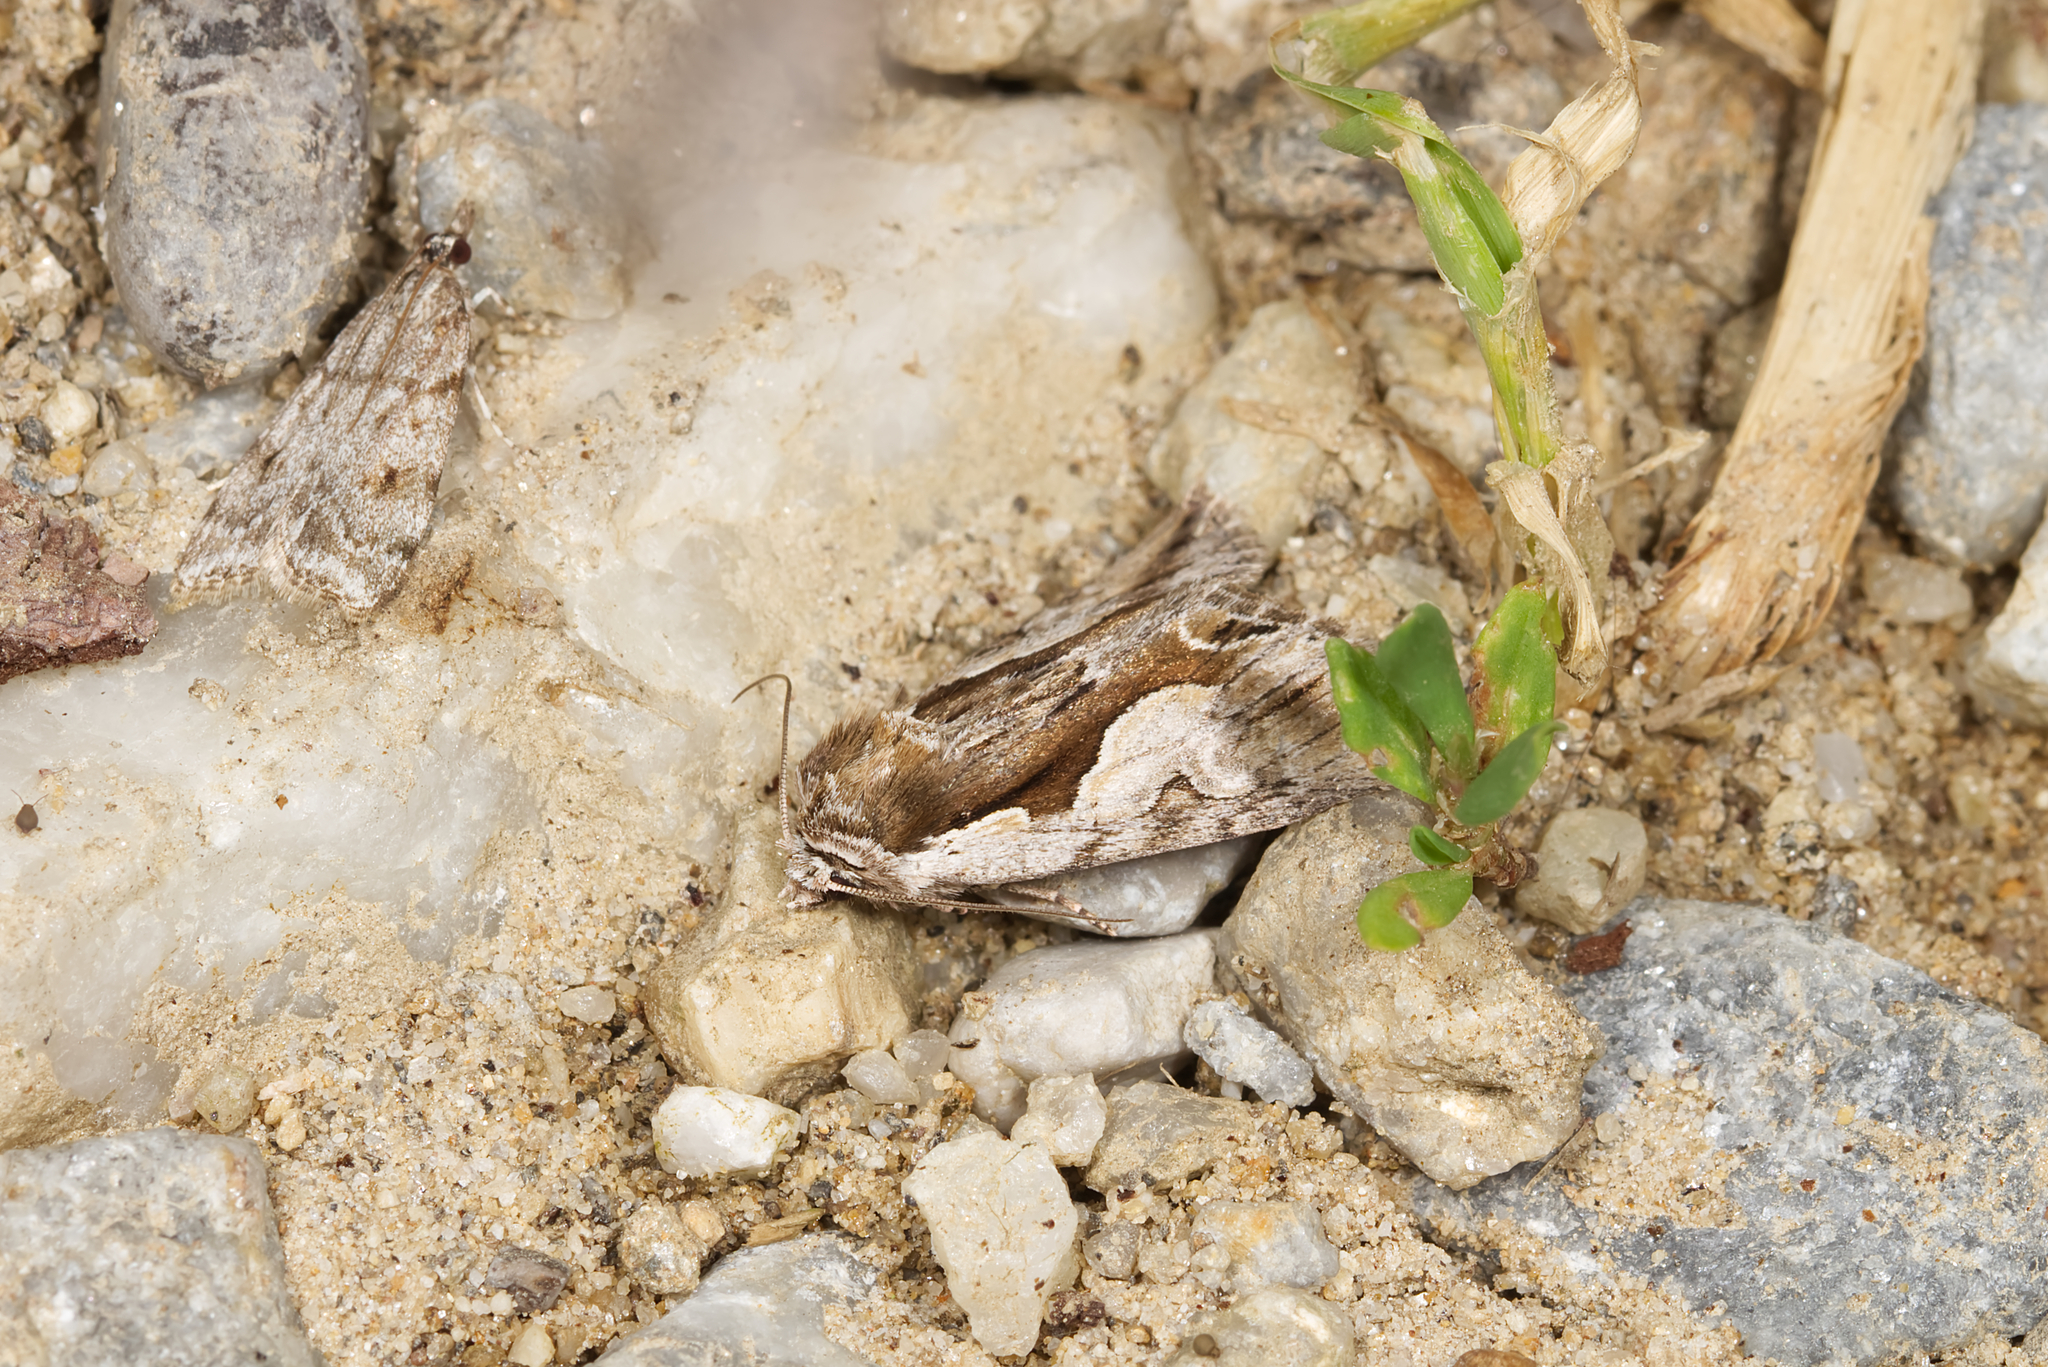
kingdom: Animalia
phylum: Arthropoda
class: Insecta
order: Lepidoptera
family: Noctuidae
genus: Calliergis
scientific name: Calliergis ramosa
